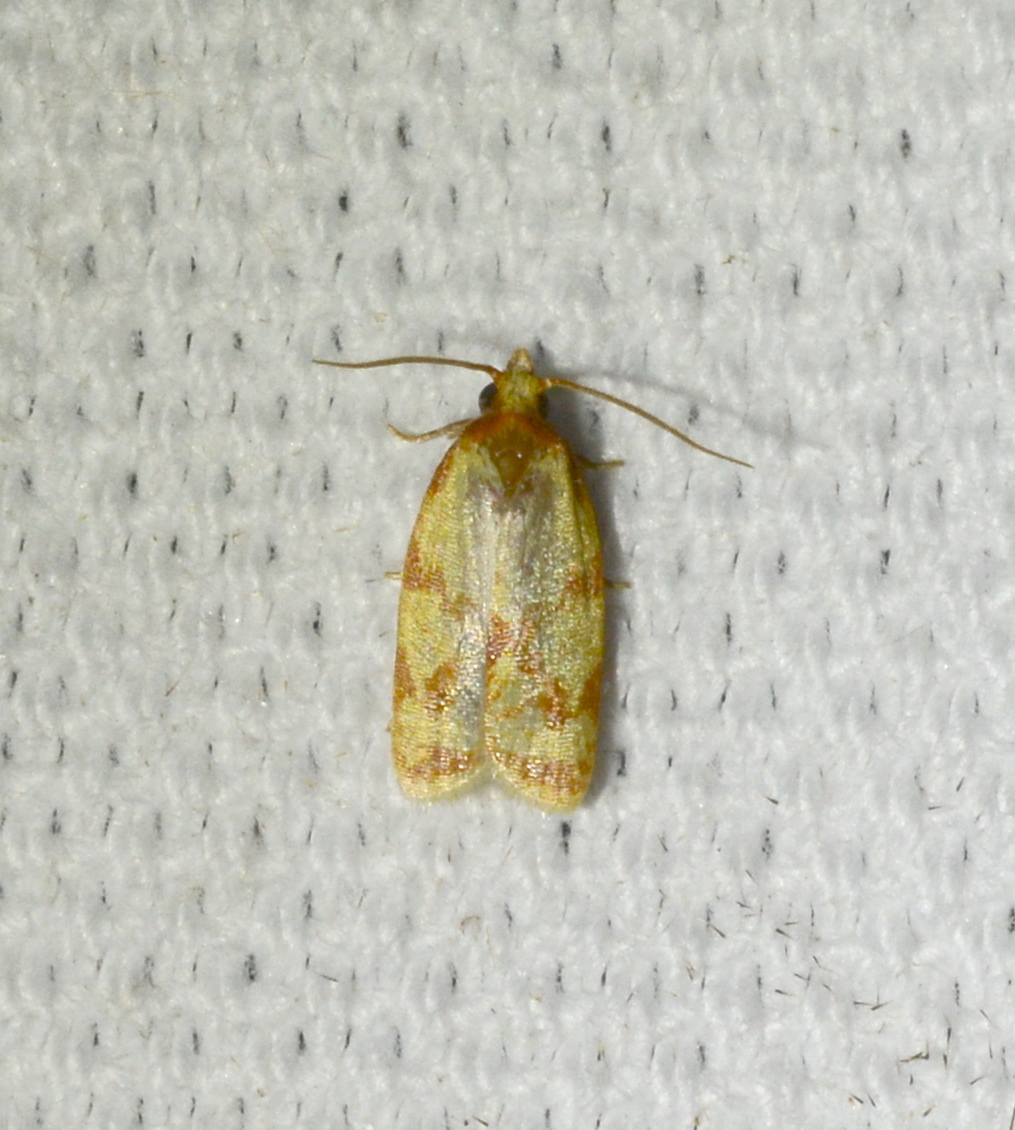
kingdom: Animalia
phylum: Arthropoda
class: Insecta
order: Lepidoptera
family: Tortricidae
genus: Sparganothis
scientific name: Sparganothis sulfureana
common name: Sparganothis fruitworm moth
